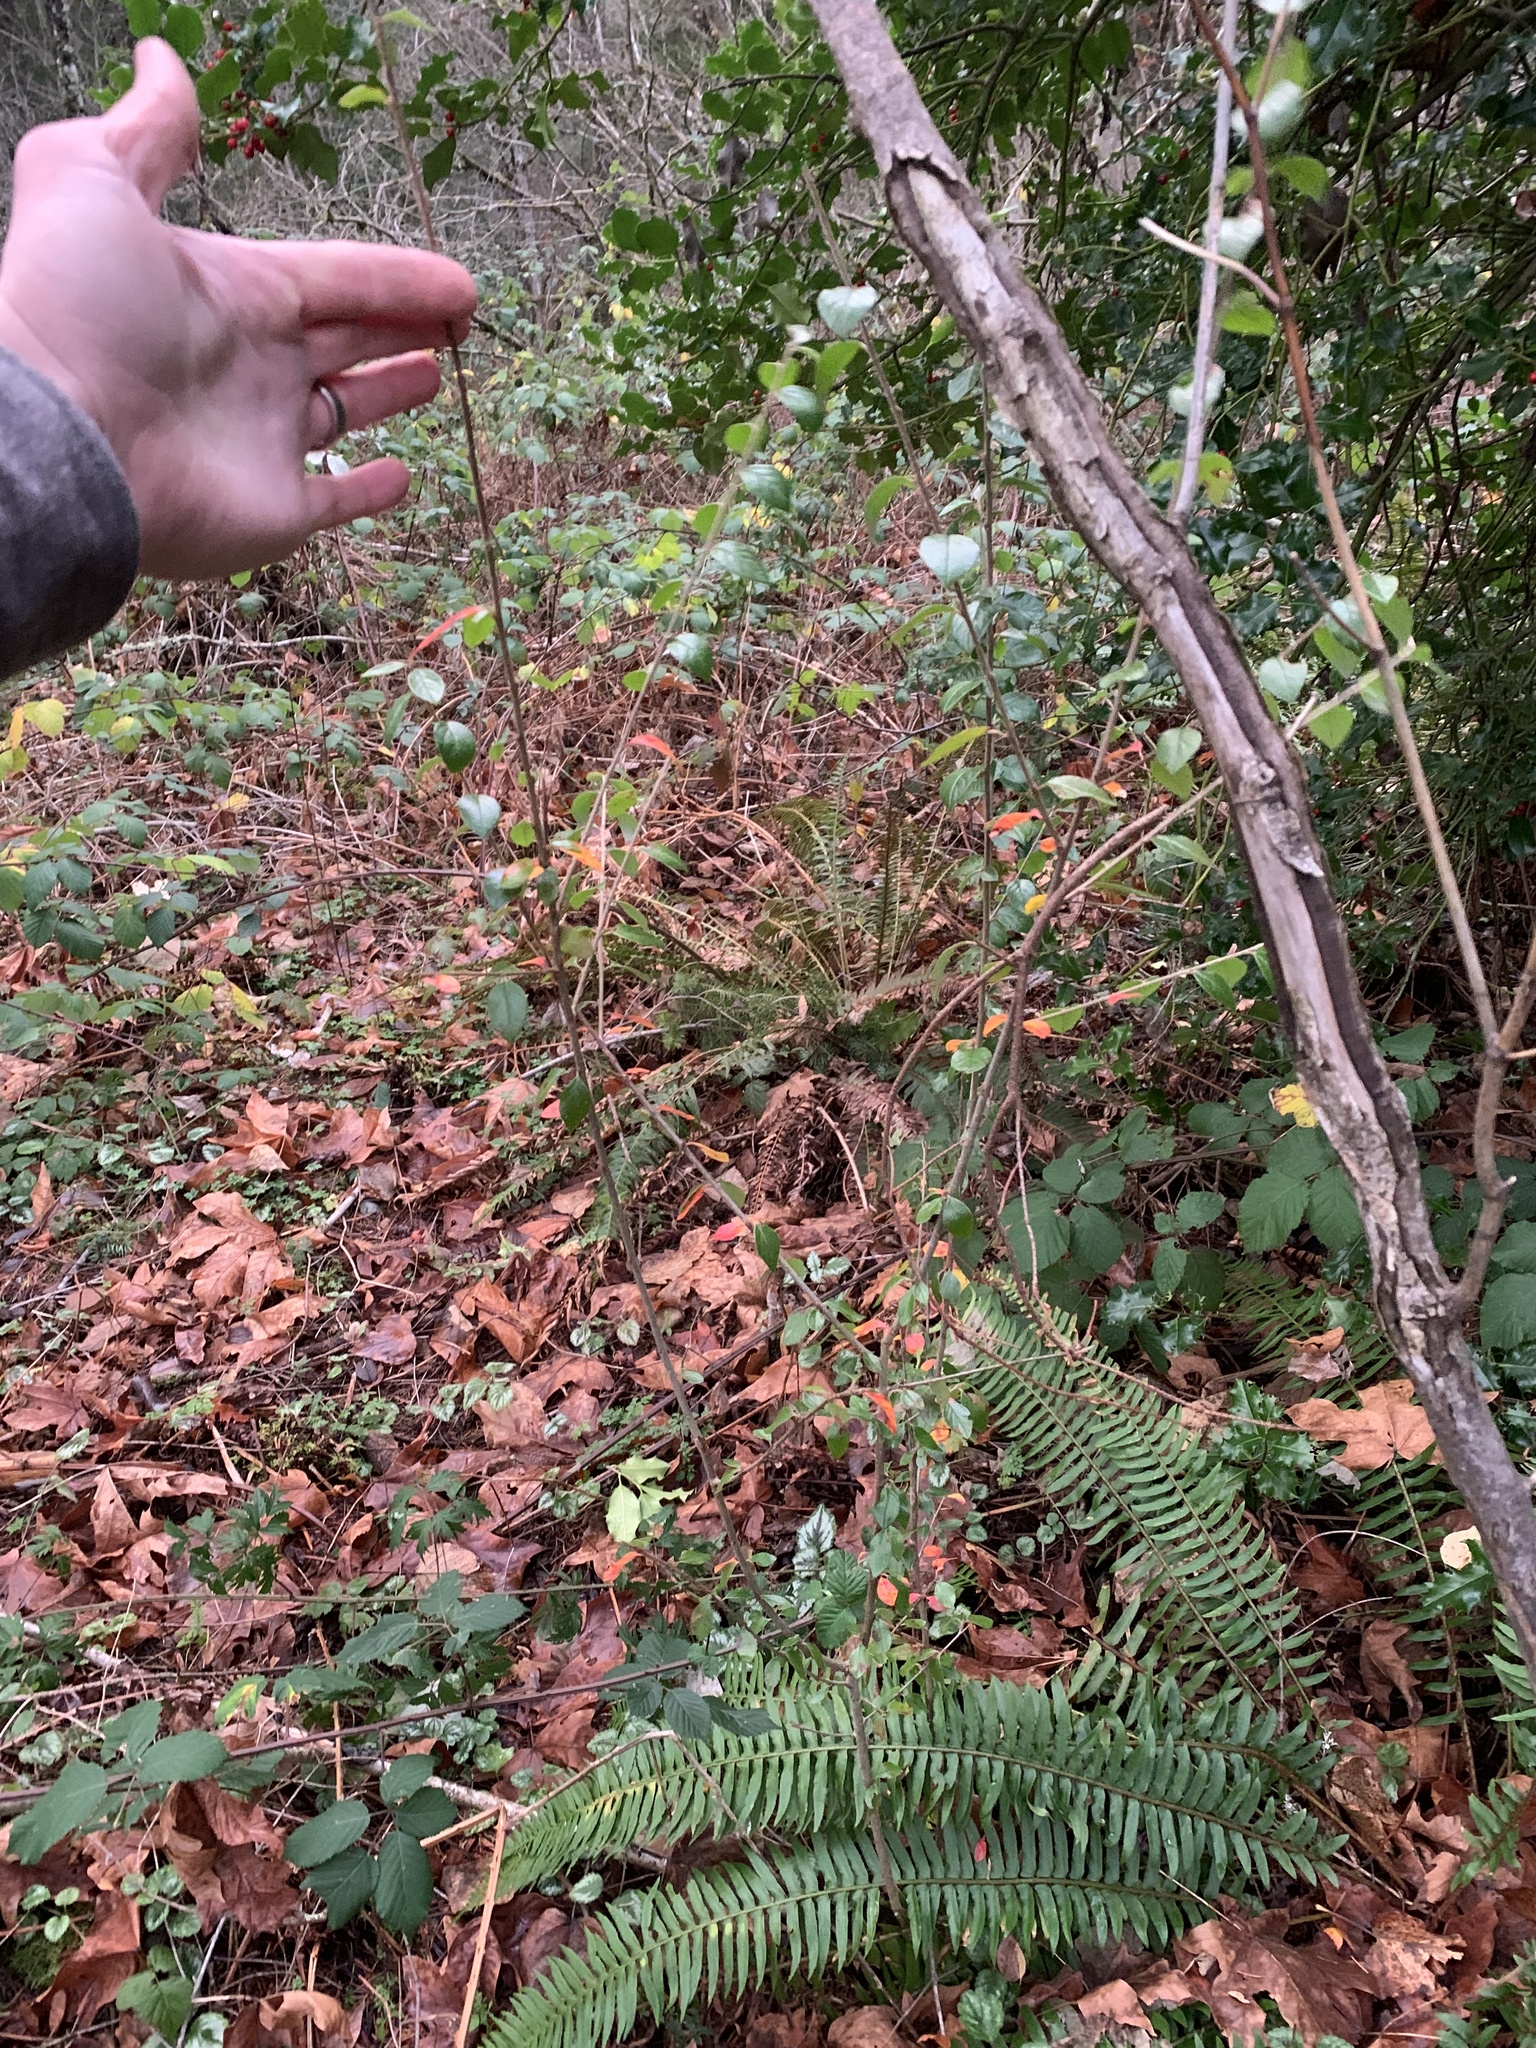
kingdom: Plantae
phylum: Tracheophyta
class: Magnoliopsida
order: Rosales
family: Rosaceae
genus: Cotoneaster
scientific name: Cotoneaster simonsii
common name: Himalayan cotoneaster
